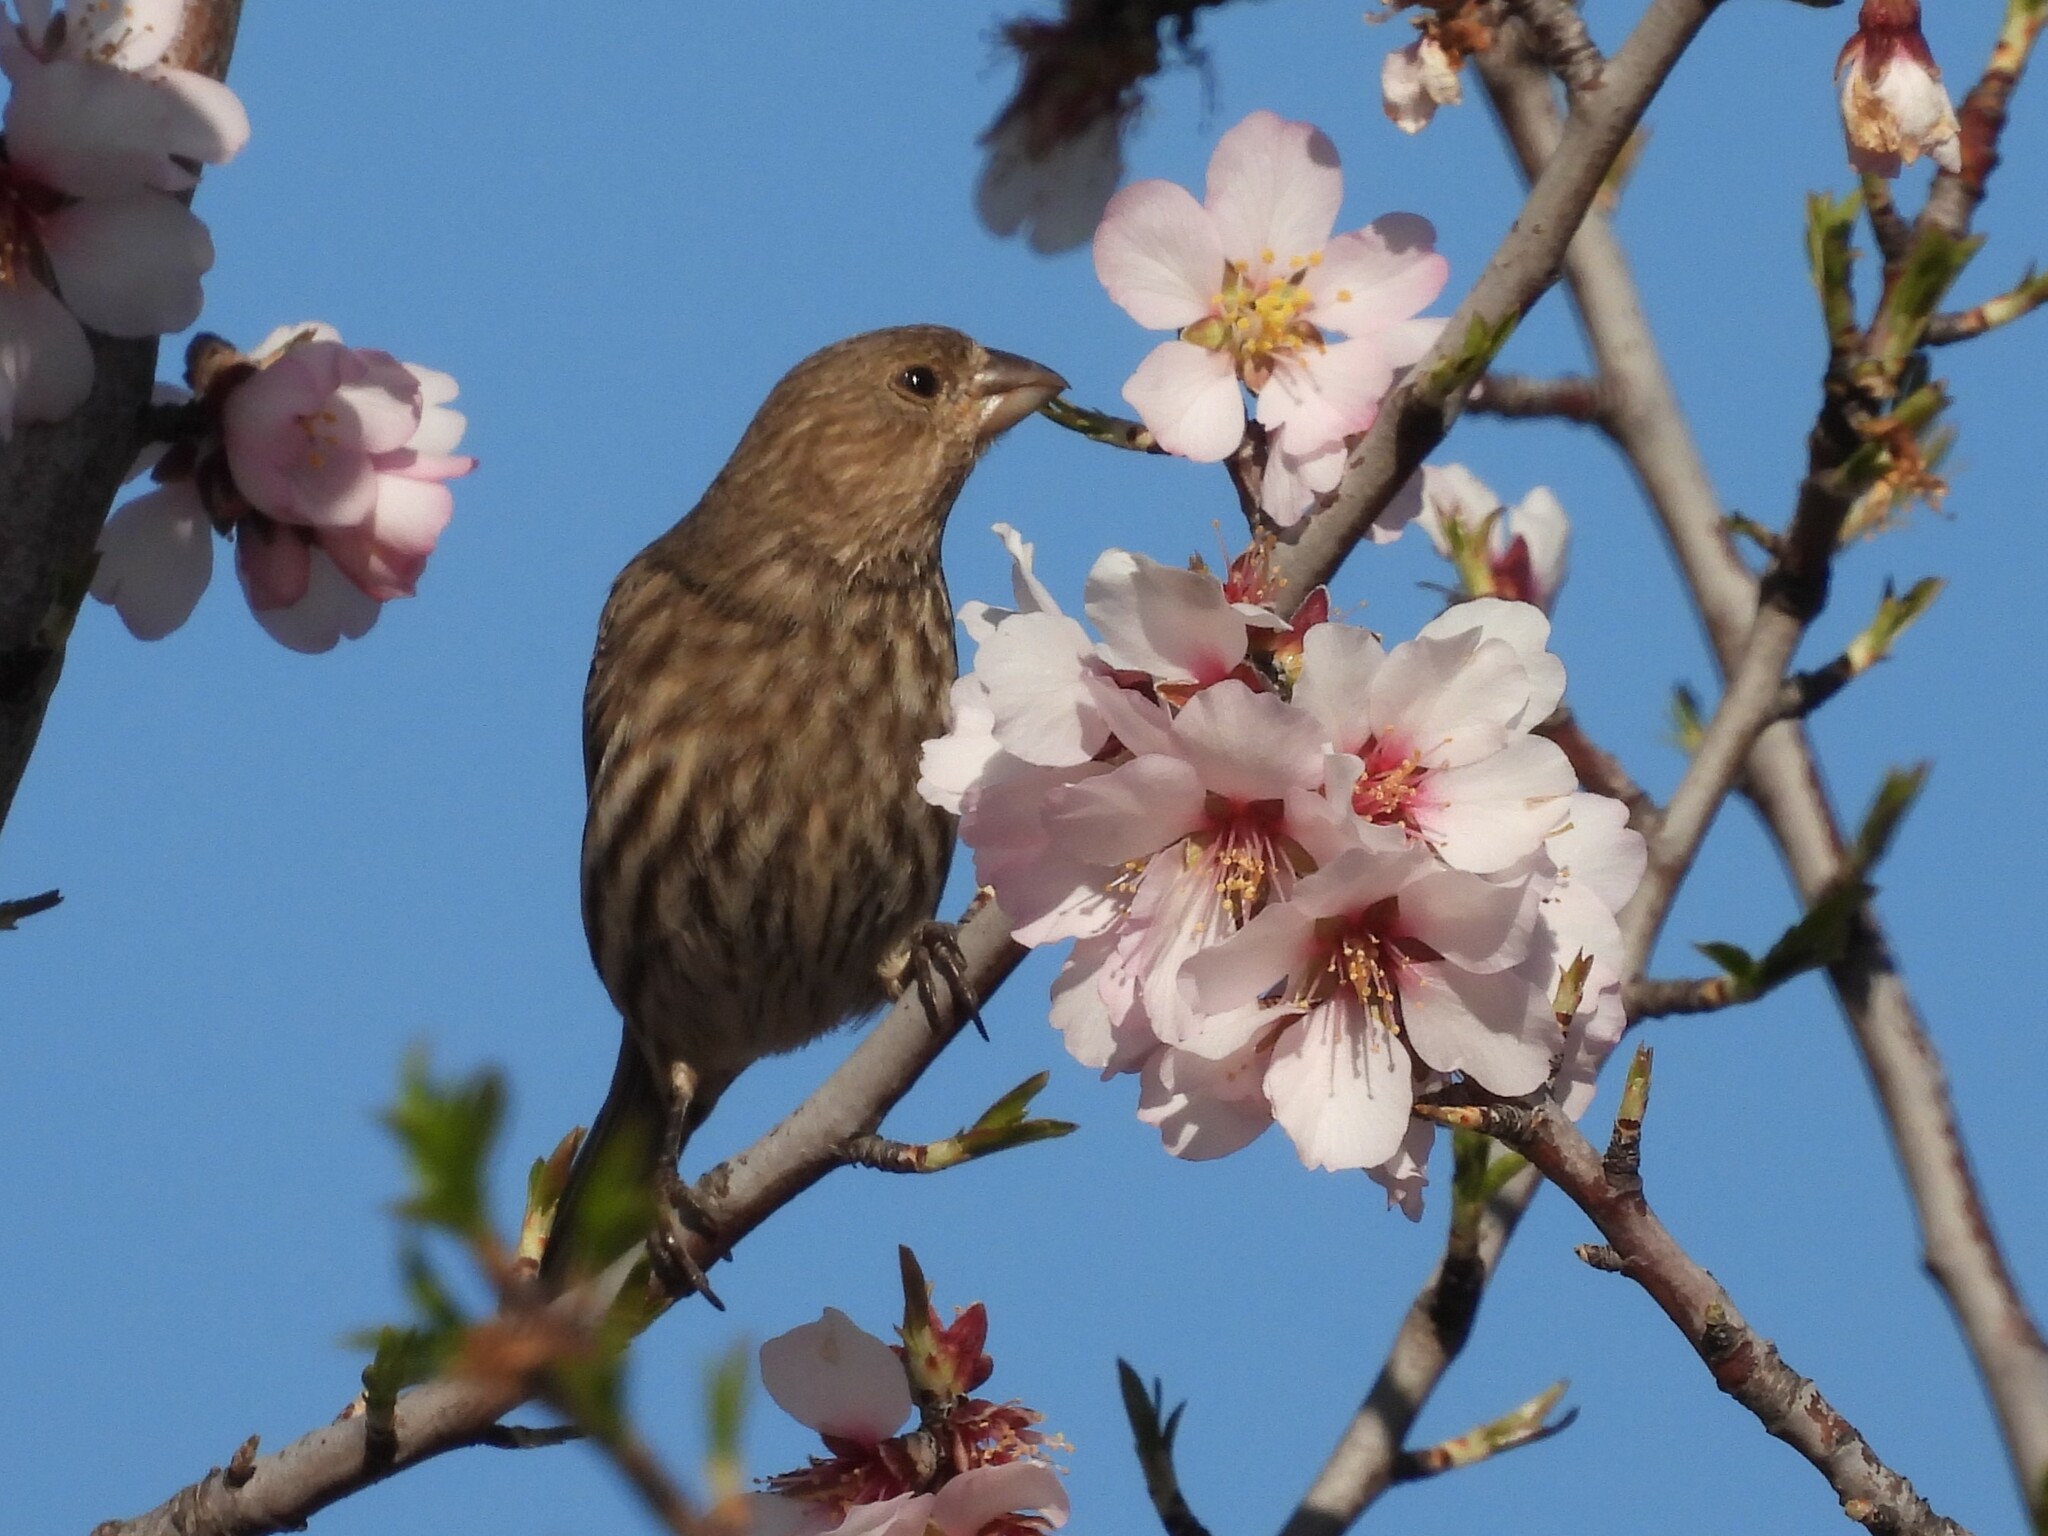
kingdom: Animalia
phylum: Chordata
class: Aves
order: Passeriformes
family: Fringillidae
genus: Haemorhous
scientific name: Haemorhous mexicanus
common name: House finch
